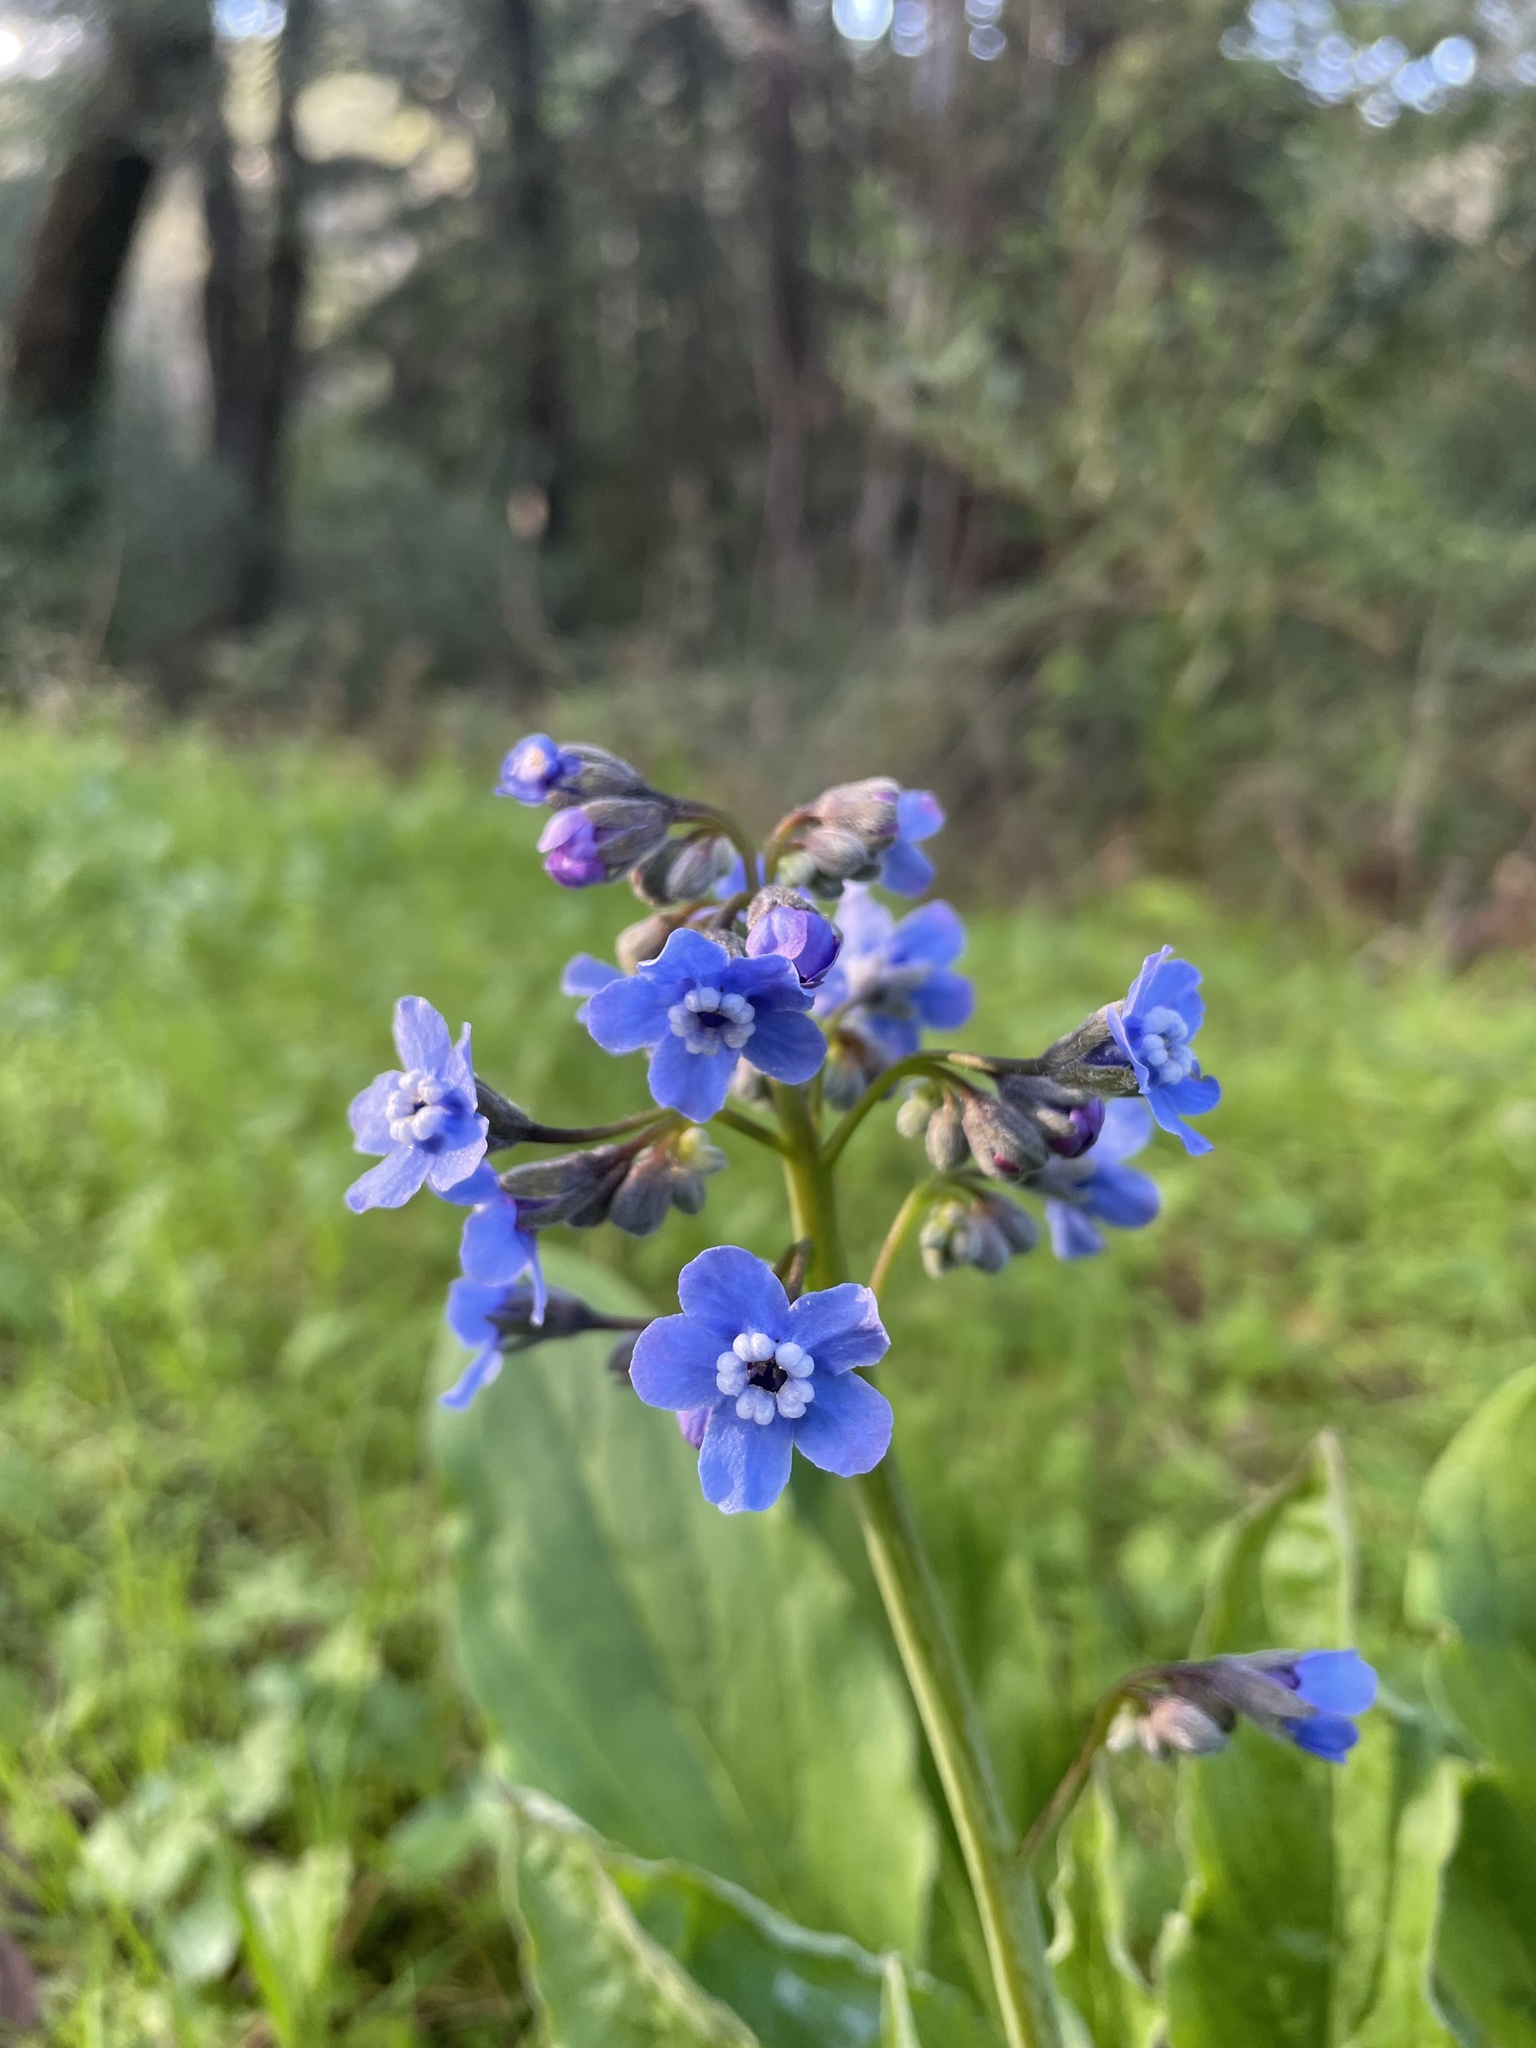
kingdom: Plantae
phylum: Tracheophyta
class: Magnoliopsida
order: Boraginales
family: Boraginaceae
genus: Adelinia
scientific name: Adelinia grande
